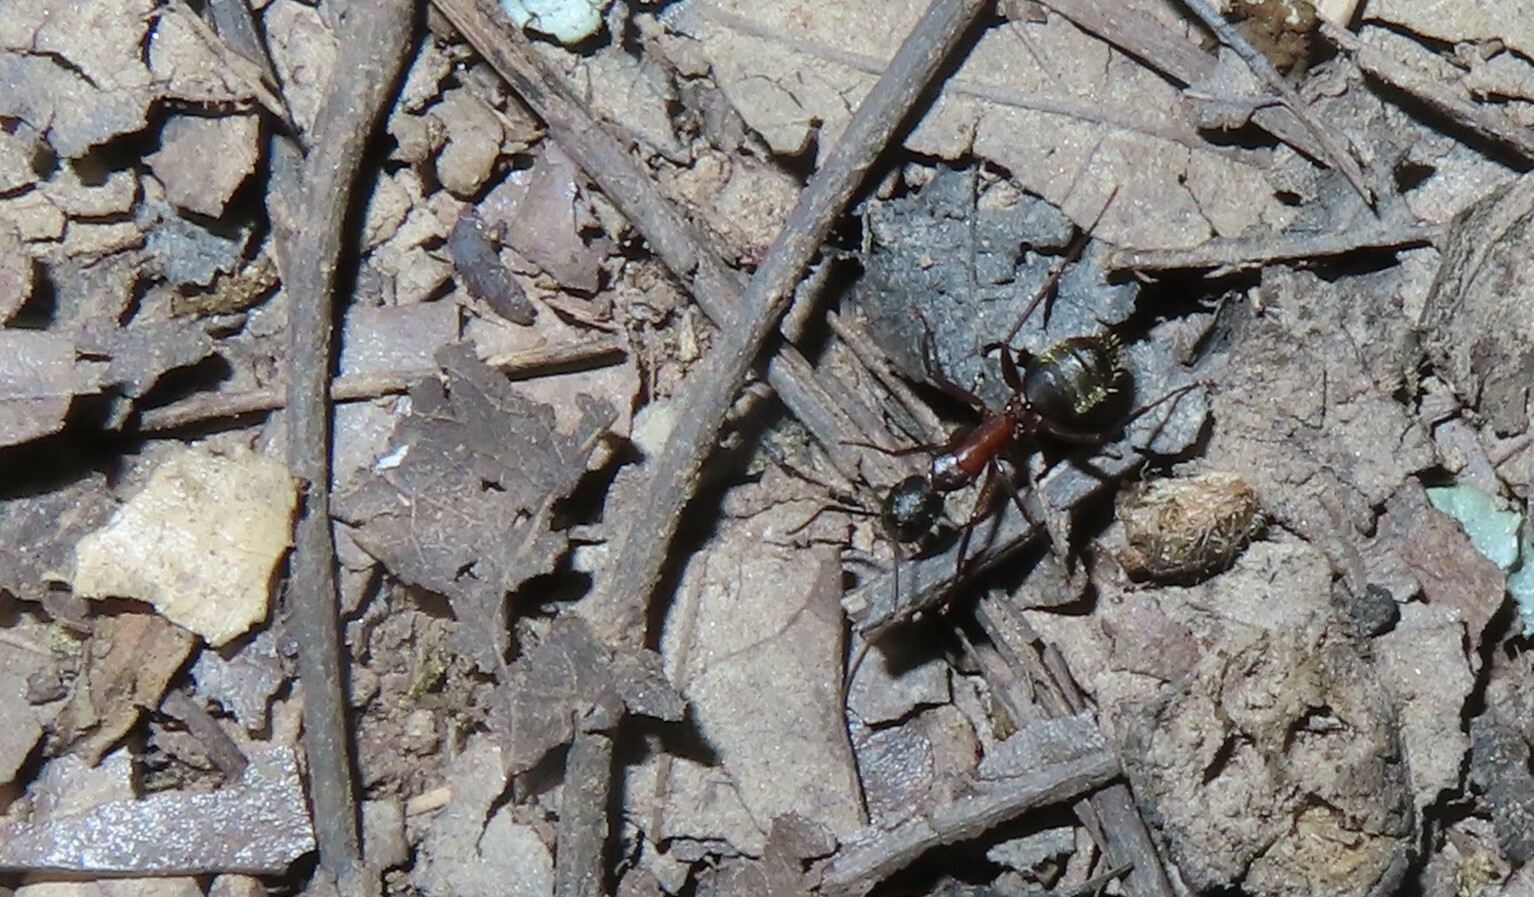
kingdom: Animalia
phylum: Arthropoda
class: Insecta
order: Hymenoptera
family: Formicidae
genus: Camponotus
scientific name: Camponotus chromaiodes
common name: Red carpenter ant
